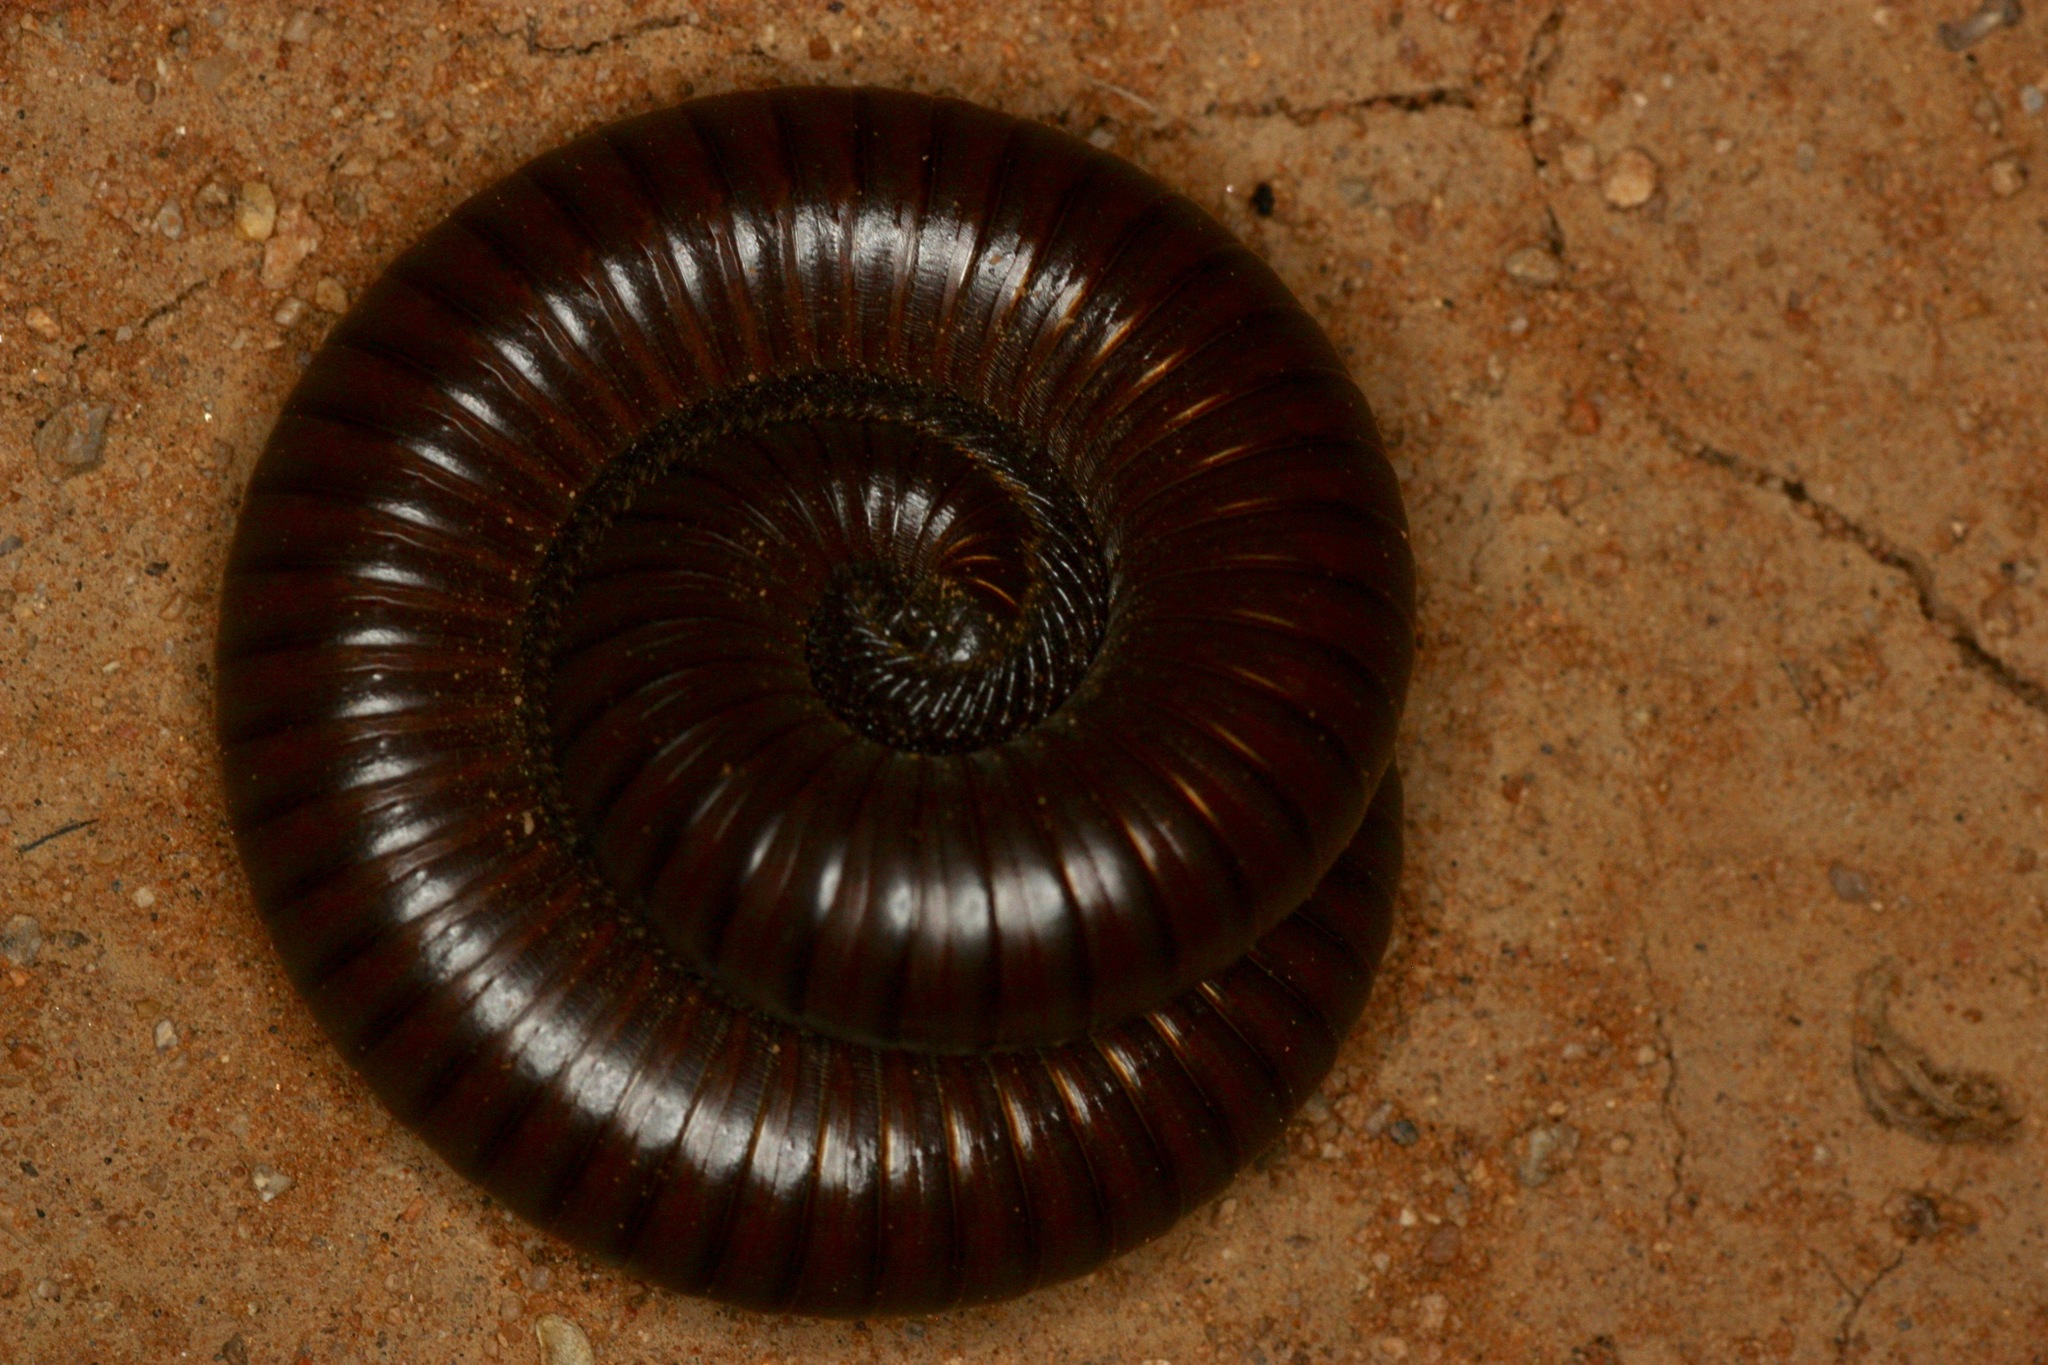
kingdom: Animalia
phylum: Arthropoda
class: Diplopoda
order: Spirostreptida
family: Spirostreptidae
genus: Orthoporus
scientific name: Orthoporus ornatus
